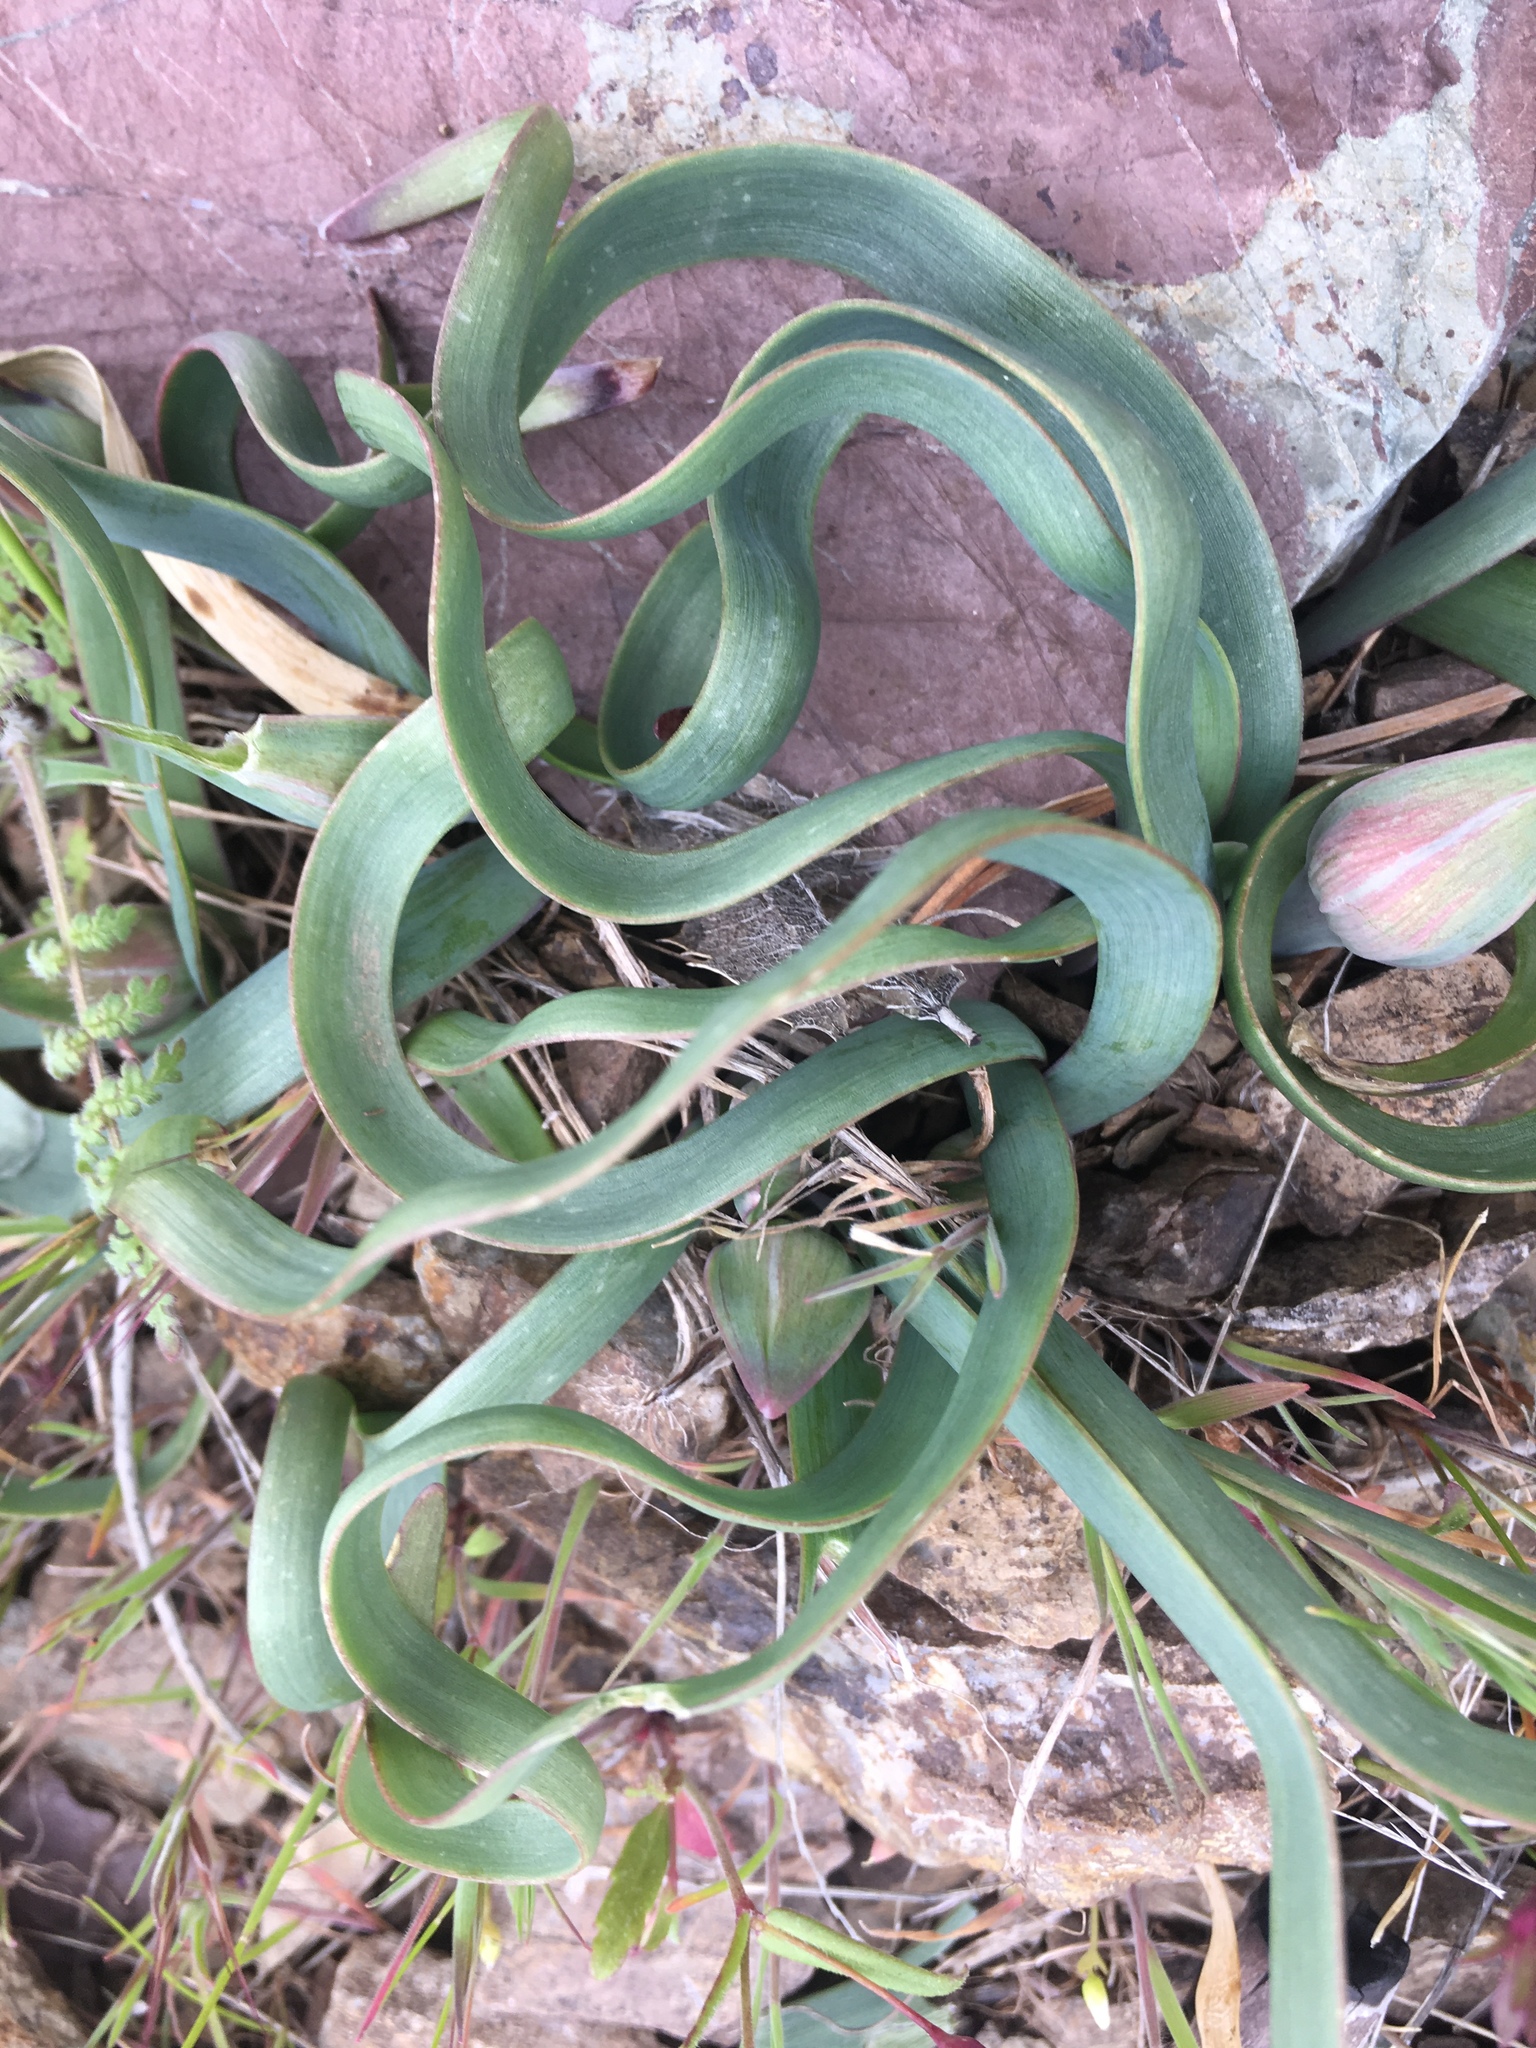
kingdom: Plantae
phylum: Tracheophyta
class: Liliopsida
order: Asparagales
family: Amaryllidaceae
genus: Allium
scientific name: Allium falcifolium
